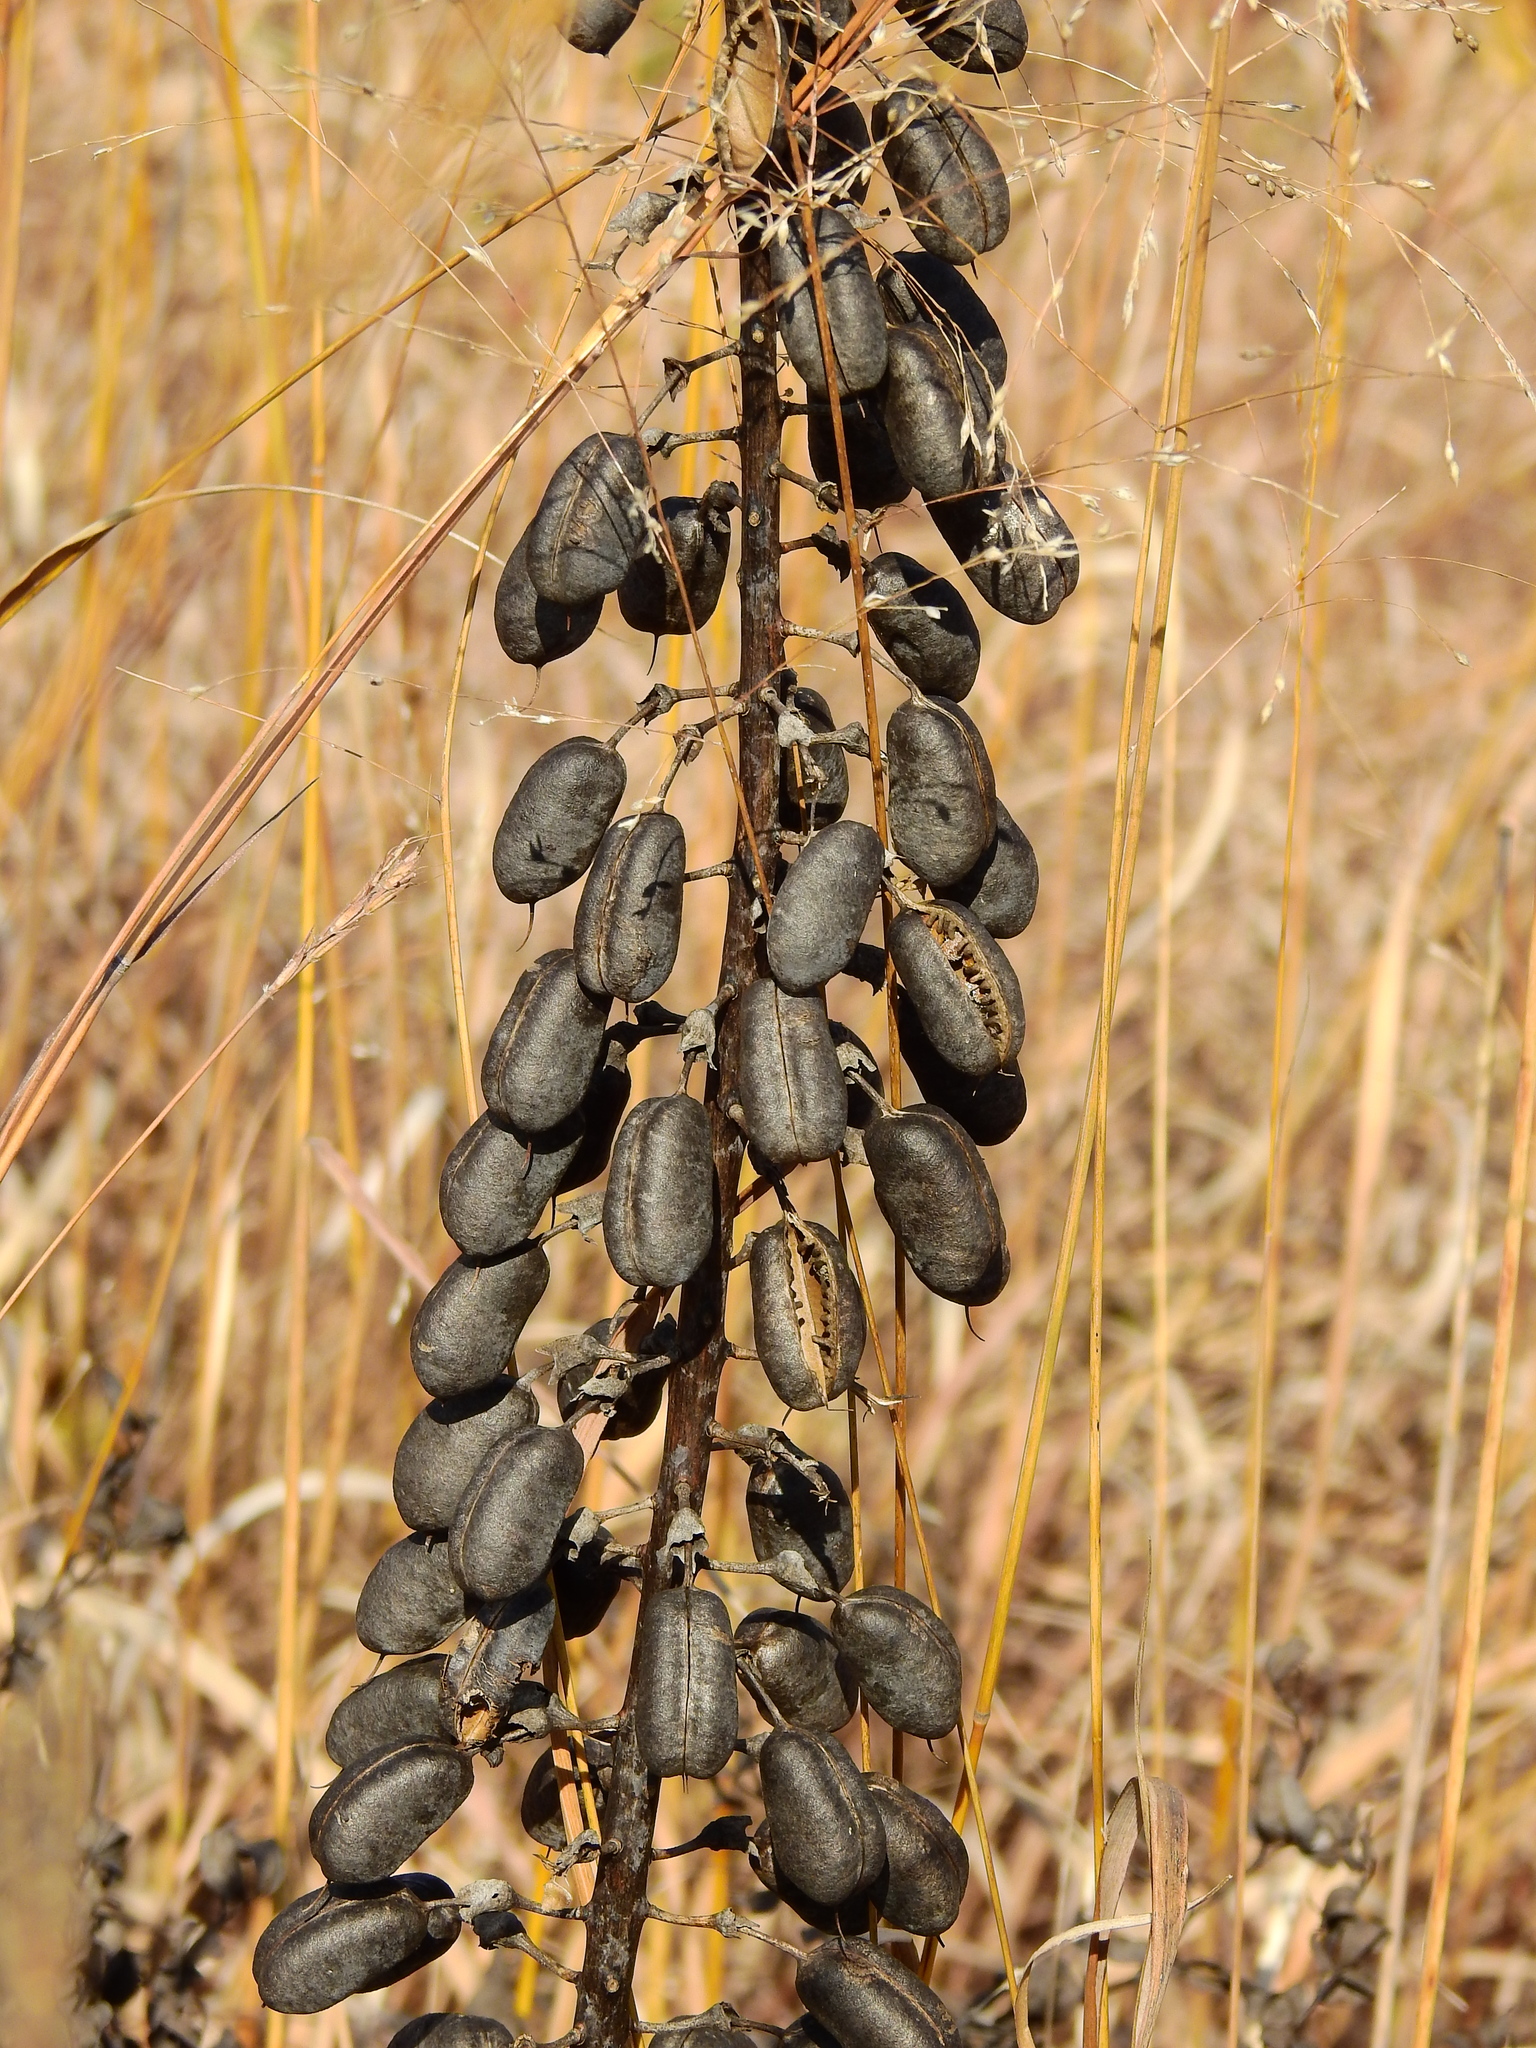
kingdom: Plantae
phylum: Tracheophyta
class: Magnoliopsida
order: Fabales
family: Fabaceae
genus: Baptisia
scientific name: Baptisia alba
